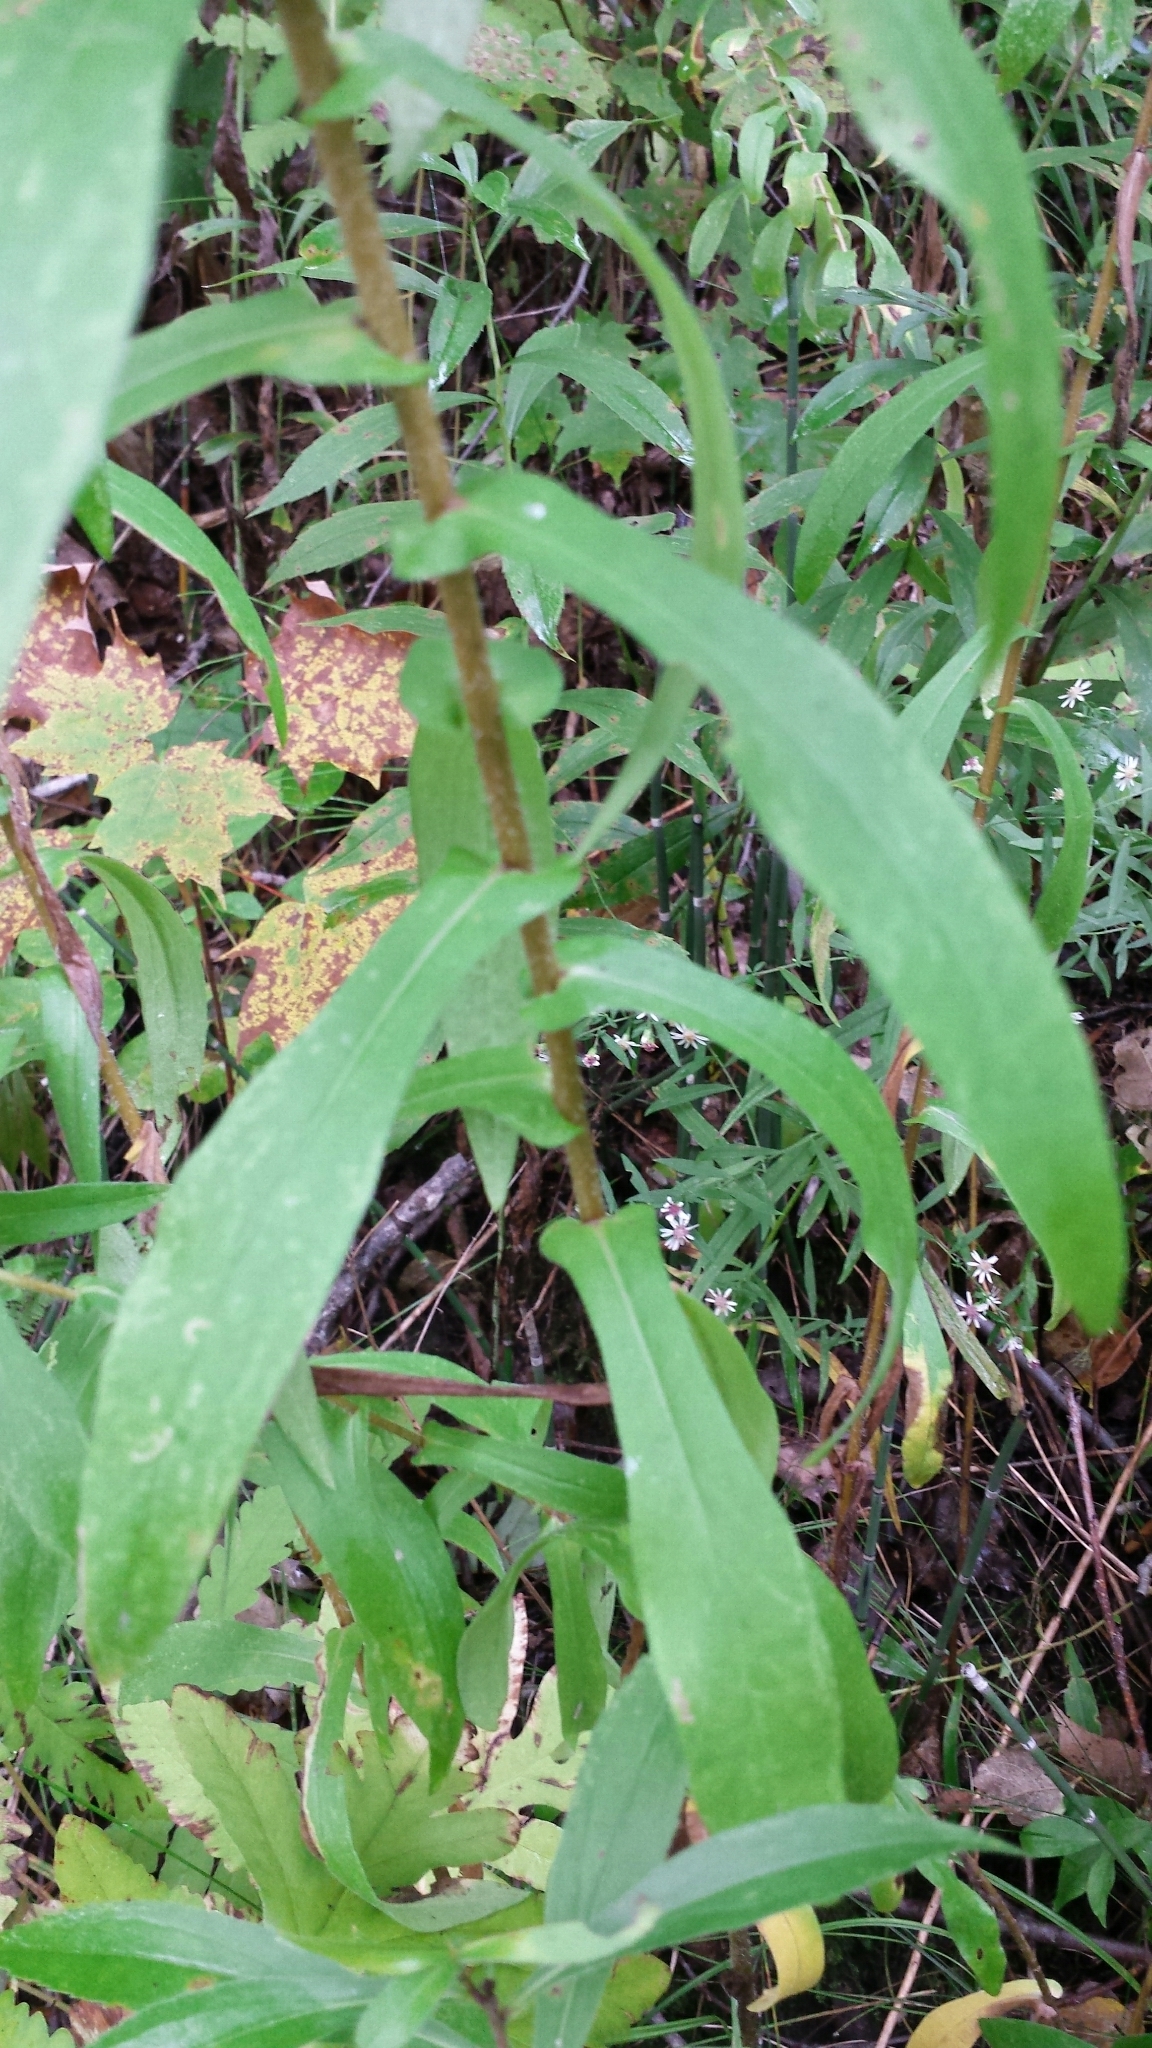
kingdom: Plantae
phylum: Tracheophyta
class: Magnoliopsida
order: Asterales
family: Asteraceae
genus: Symphyotrichum
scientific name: Symphyotrichum novae-angliae
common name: Michaelmas daisy
